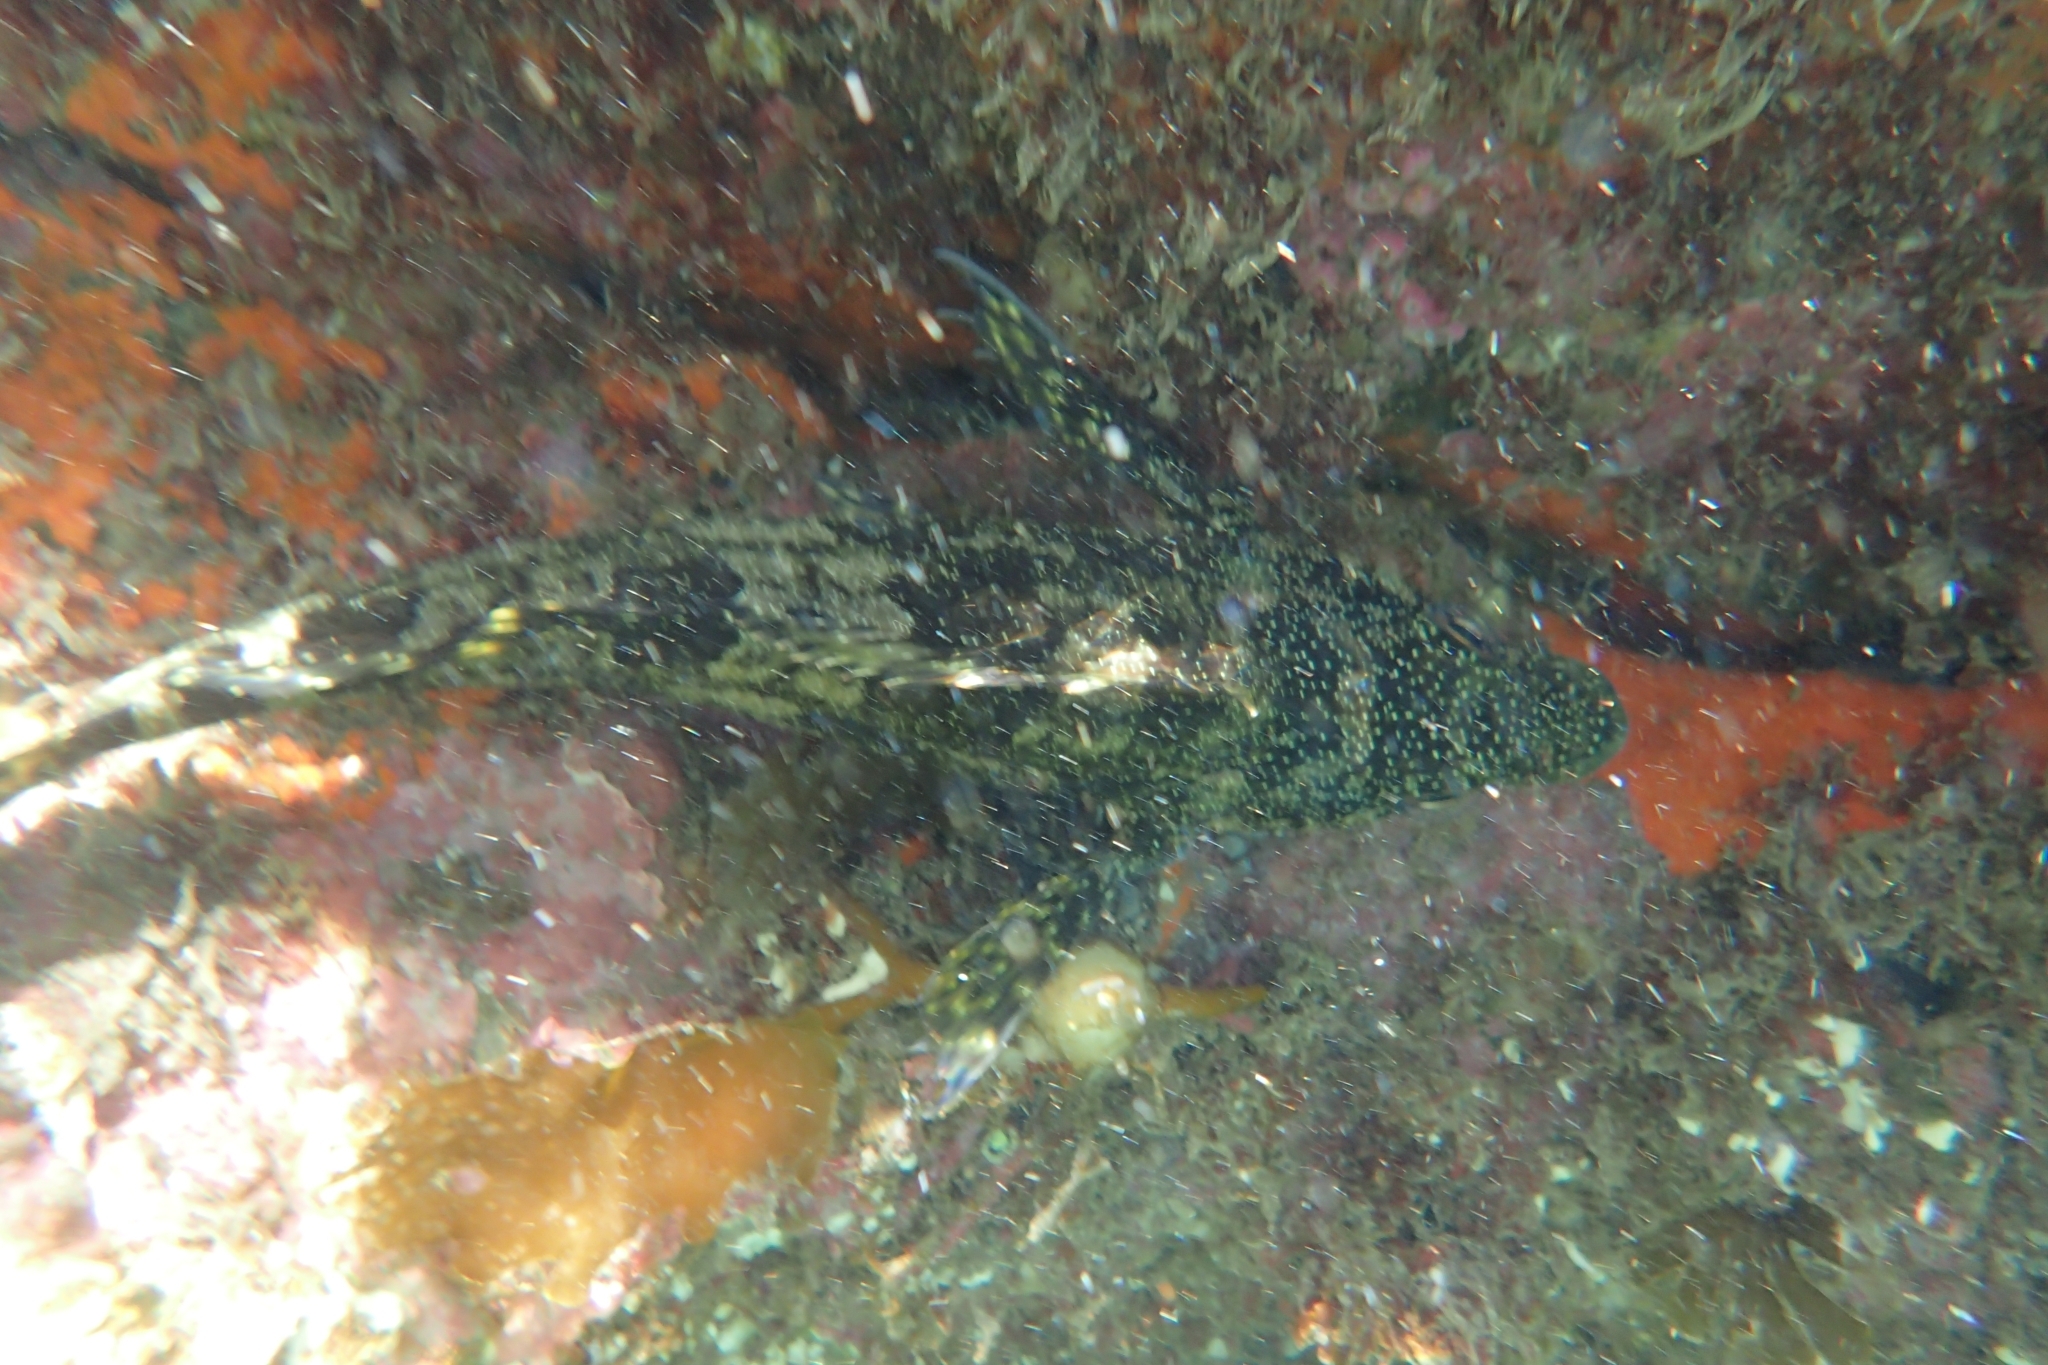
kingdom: Animalia
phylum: Chordata
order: Perciformes
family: Chironemidae
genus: Chironemus
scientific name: Chironemus marmoratus
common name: Kelpfish
